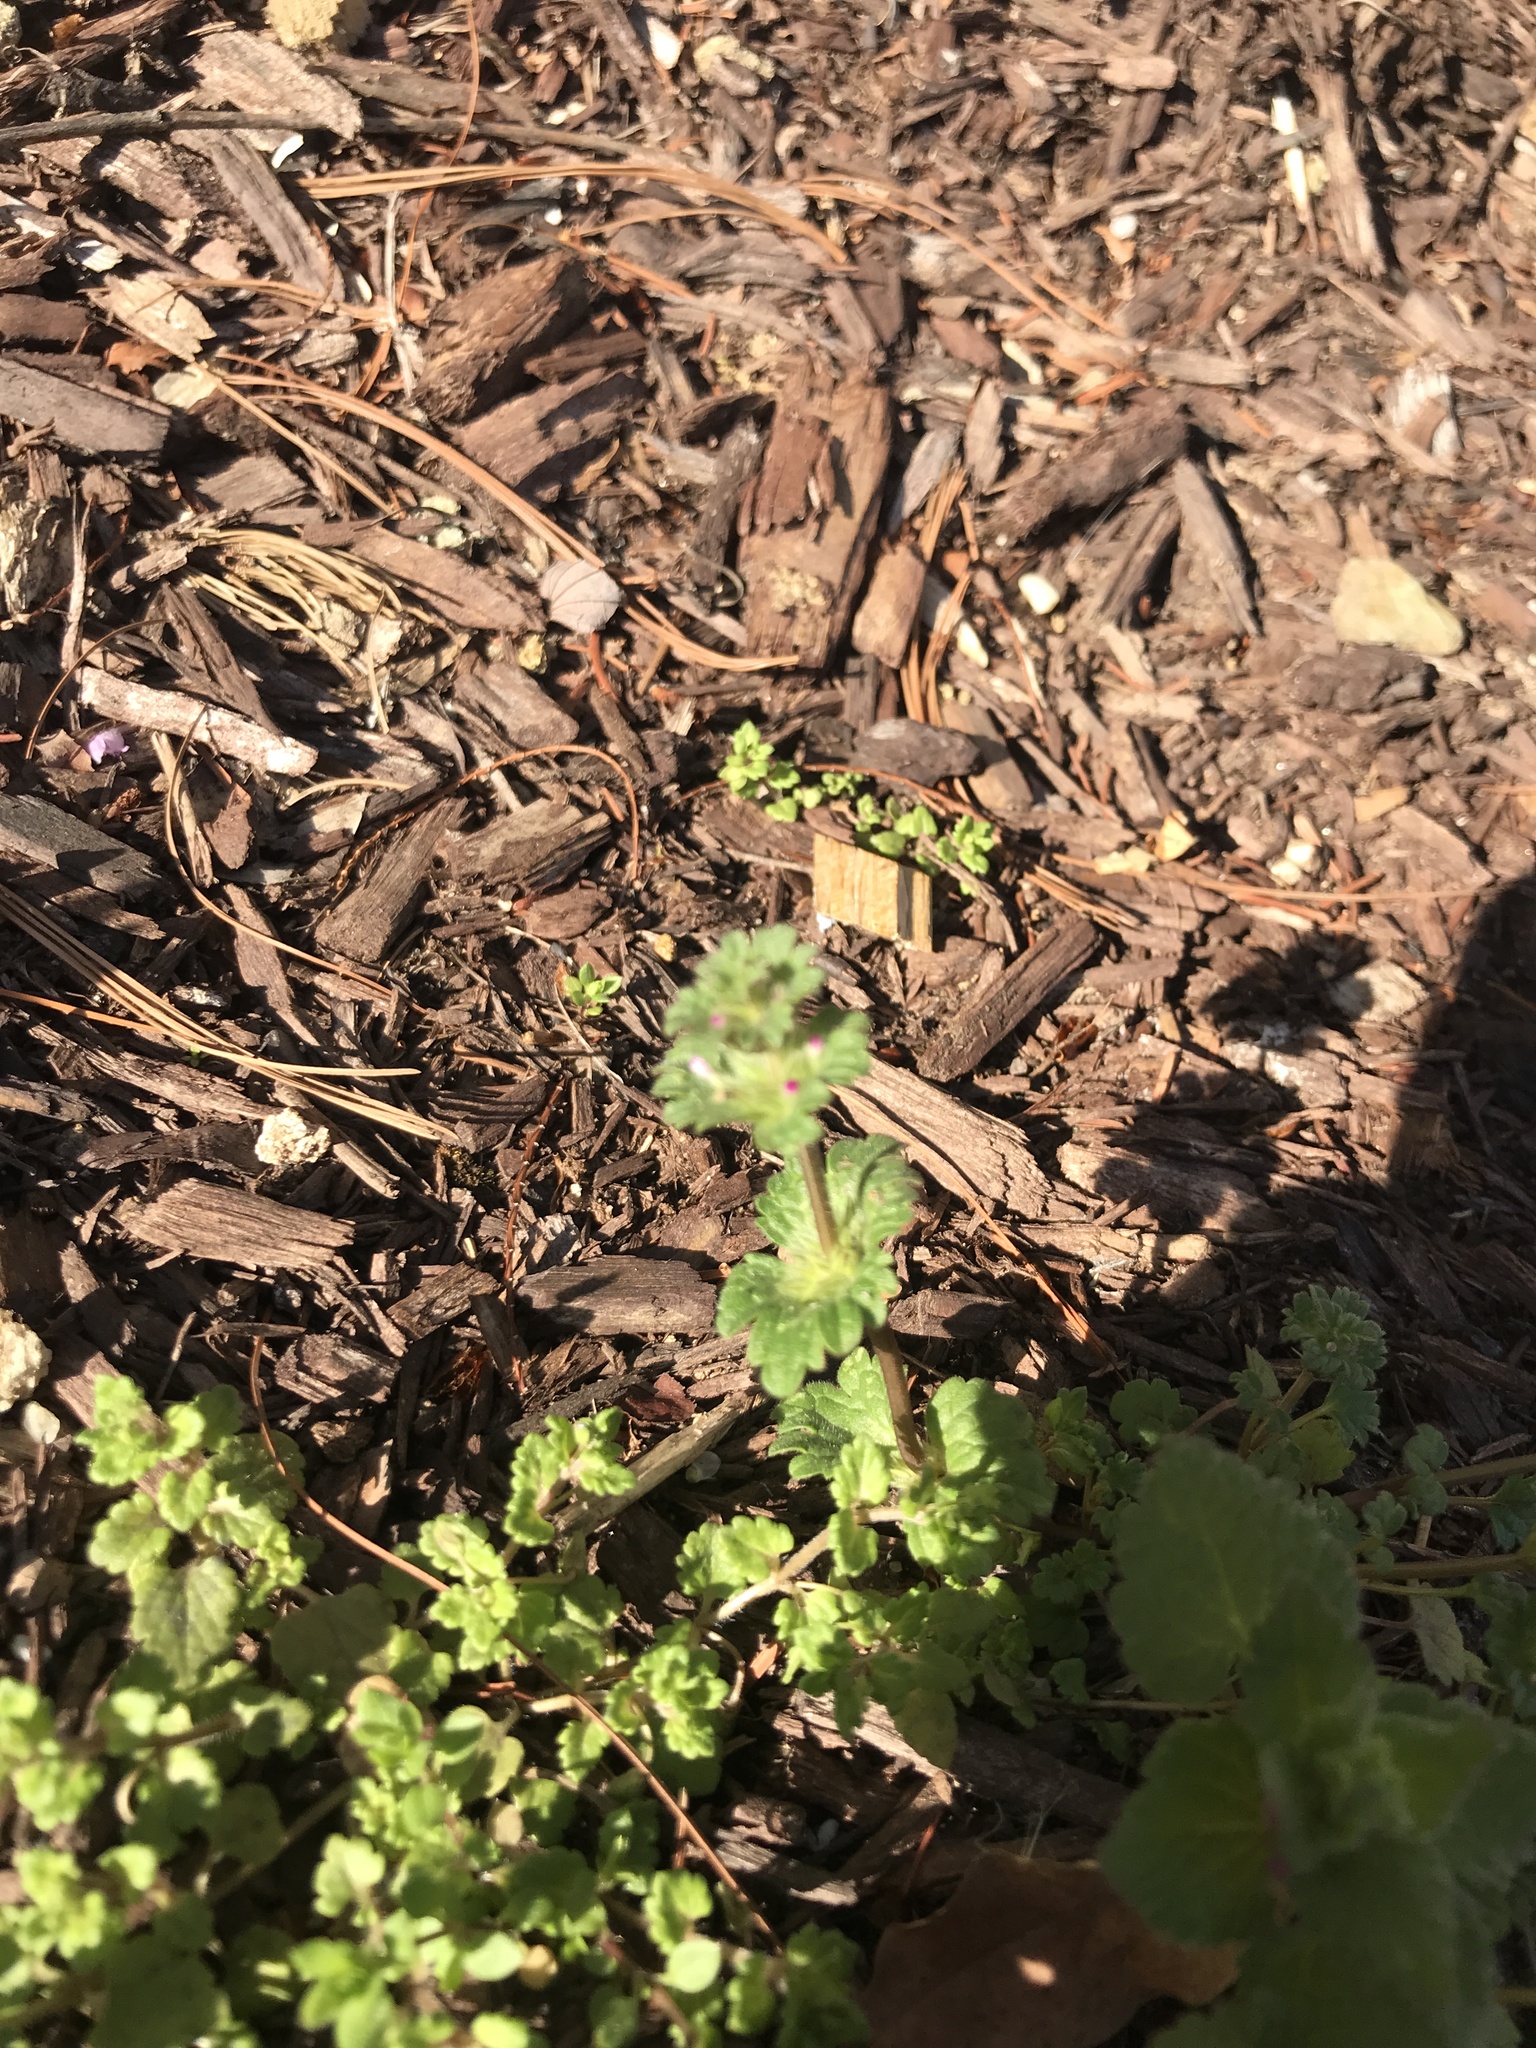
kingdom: Plantae
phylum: Tracheophyta
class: Magnoliopsida
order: Lamiales
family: Lamiaceae
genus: Lamium
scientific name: Lamium amplexicaule
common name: Henbit dead-nettle
